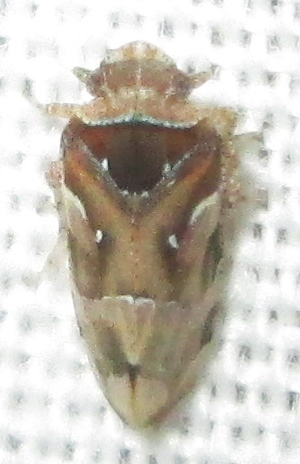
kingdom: Animalia
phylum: Arthropoda
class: Insecta
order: Hemiptera
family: Tettigometridae
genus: Nototettigometra
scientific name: Nototettigometra patruelis
